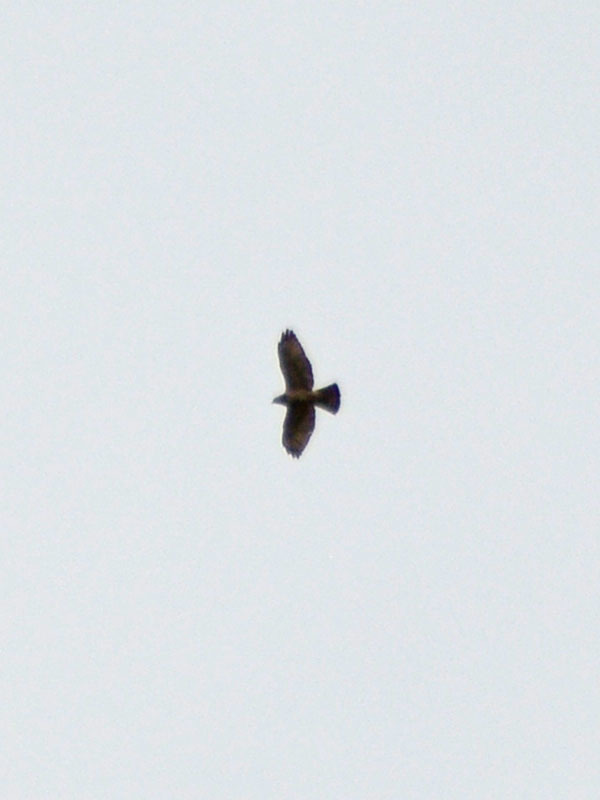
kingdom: Animalia
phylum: Chordata
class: Aves
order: Accipitriformes
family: Accipitridae
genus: Buteo
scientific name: Buteo platypterus
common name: Broad-winged hawk
